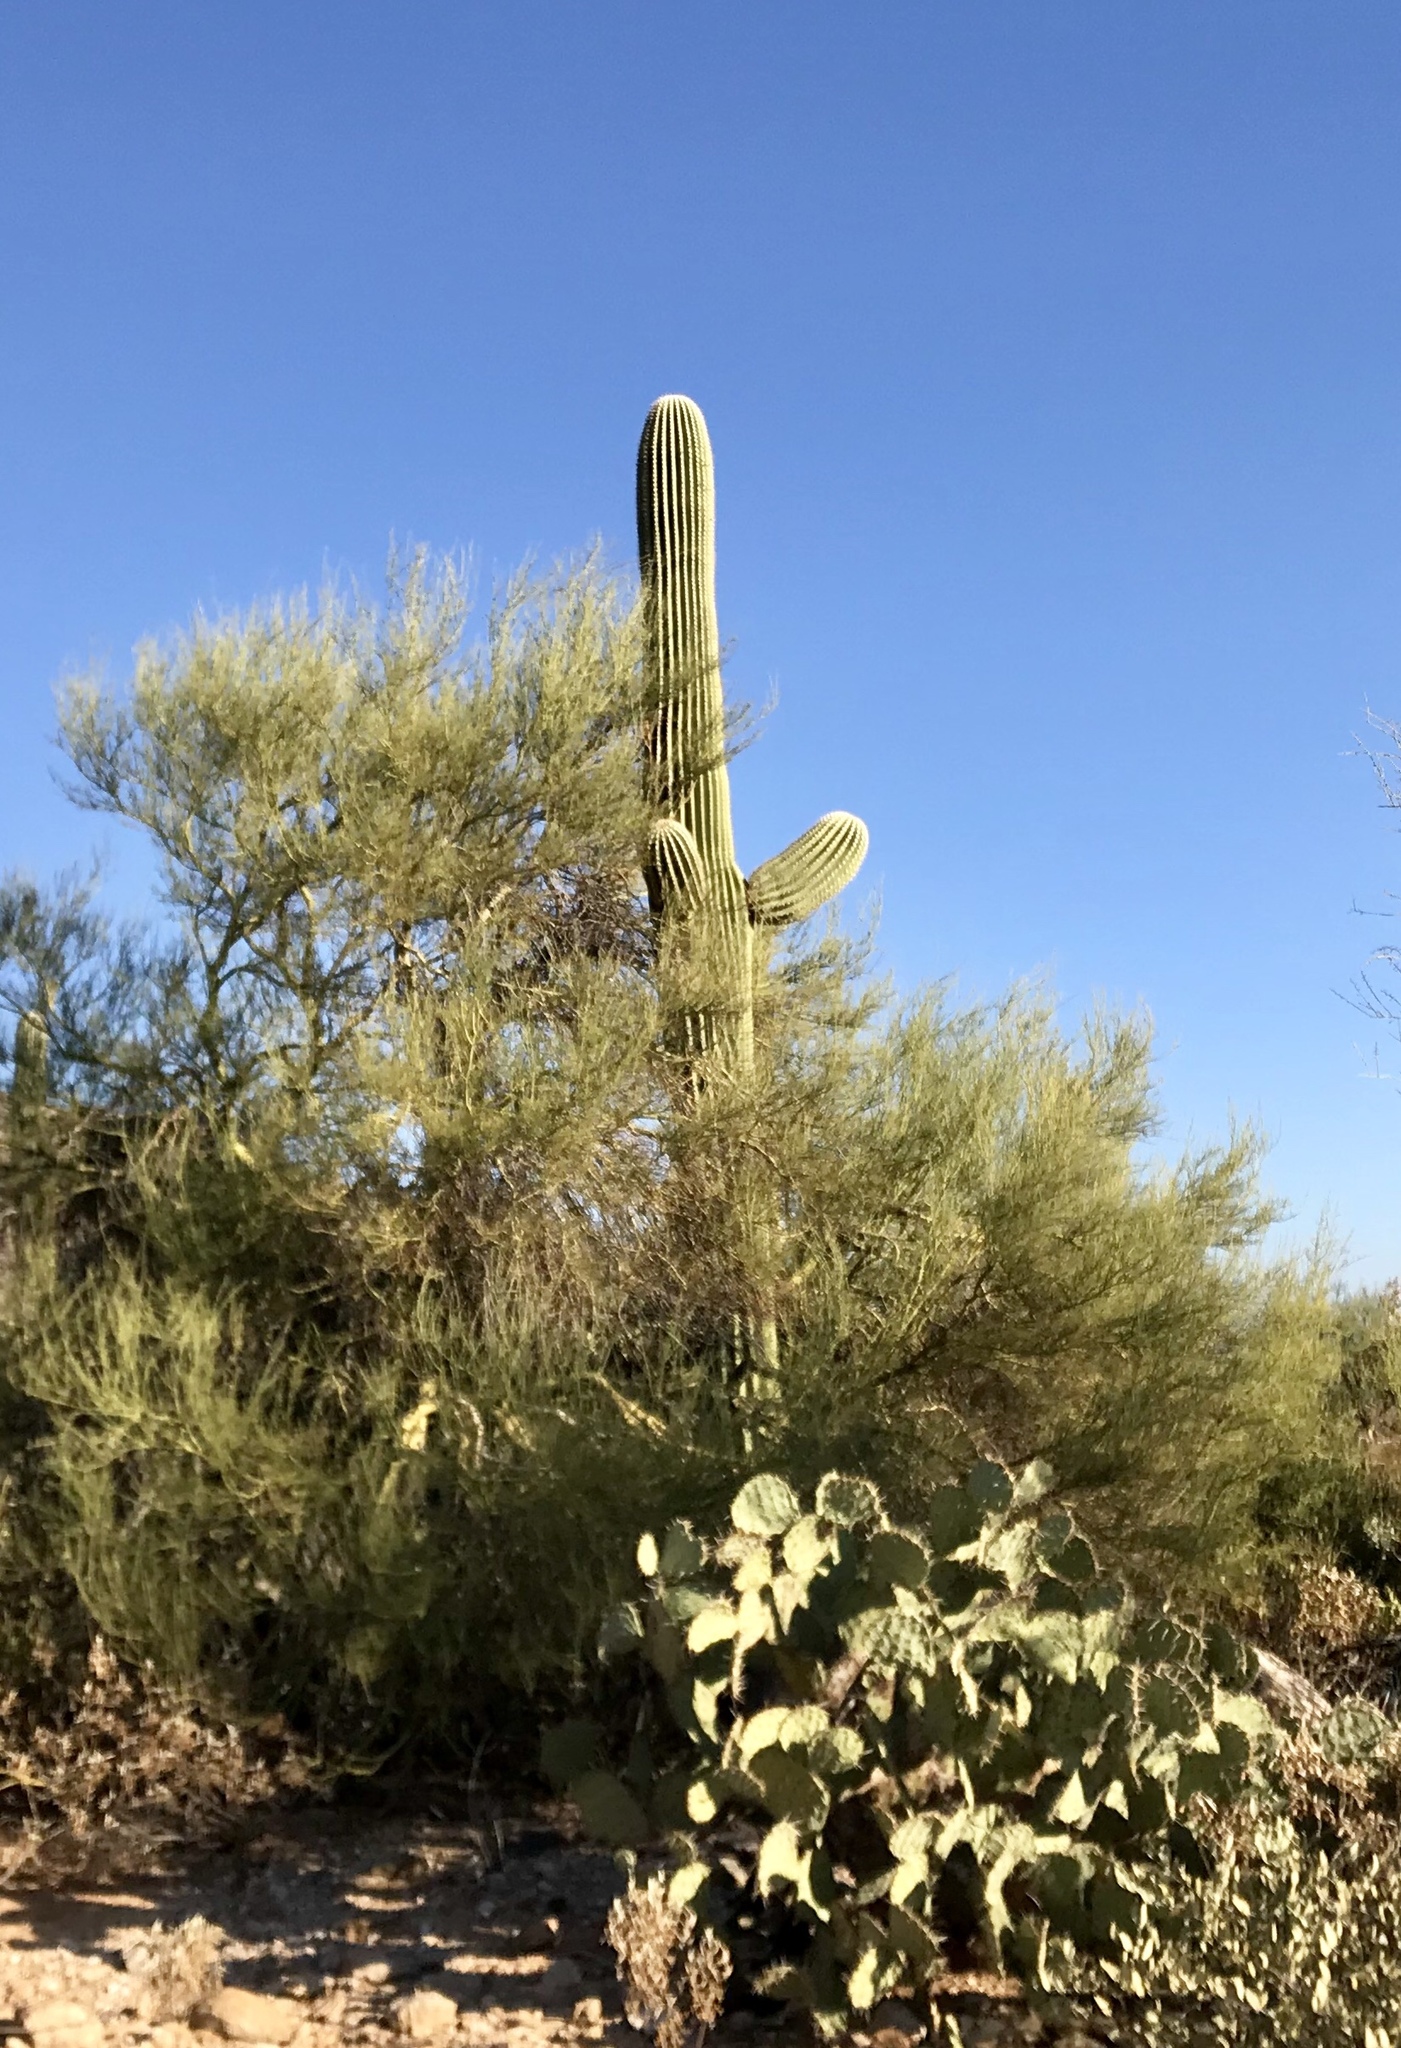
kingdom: Plantae
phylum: Tracheophyta
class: Magnoliopsida
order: Fabales
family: Fabaceae
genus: Parkinsonia
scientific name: Parkinsonia microphylla
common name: Yellow paloverde
